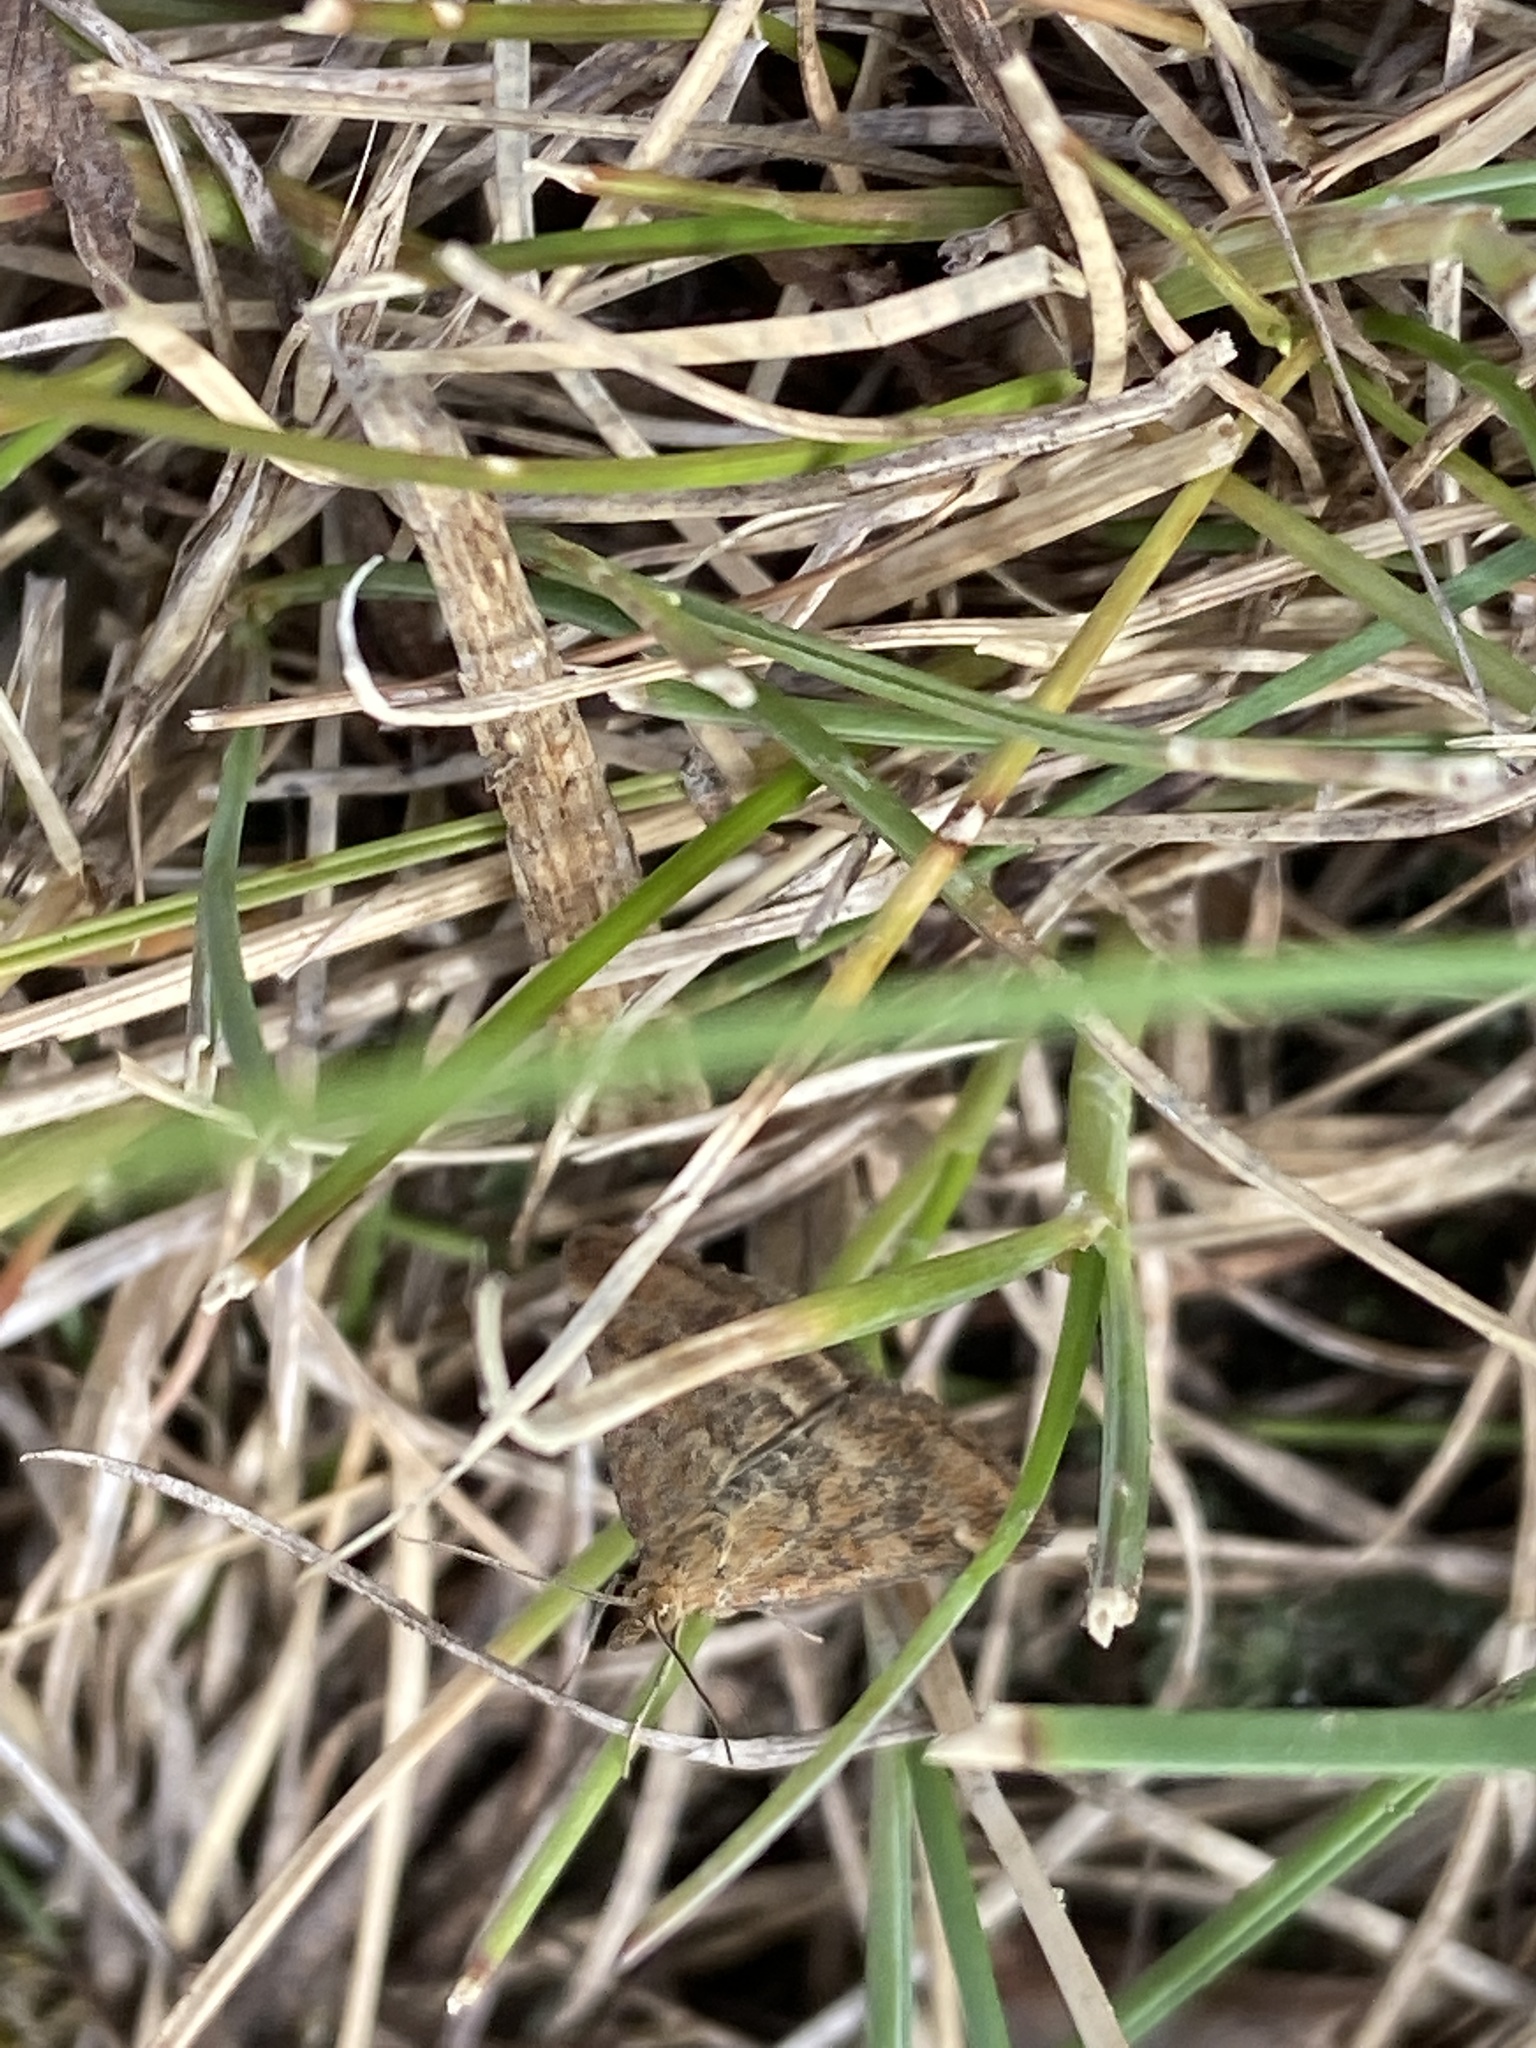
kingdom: Animalia
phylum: Arthropoda
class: Insecta
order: Lepidoptera
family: Crambidae
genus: Pyrausta
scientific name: Pyrausta despicata
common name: Straw-barred pearl
